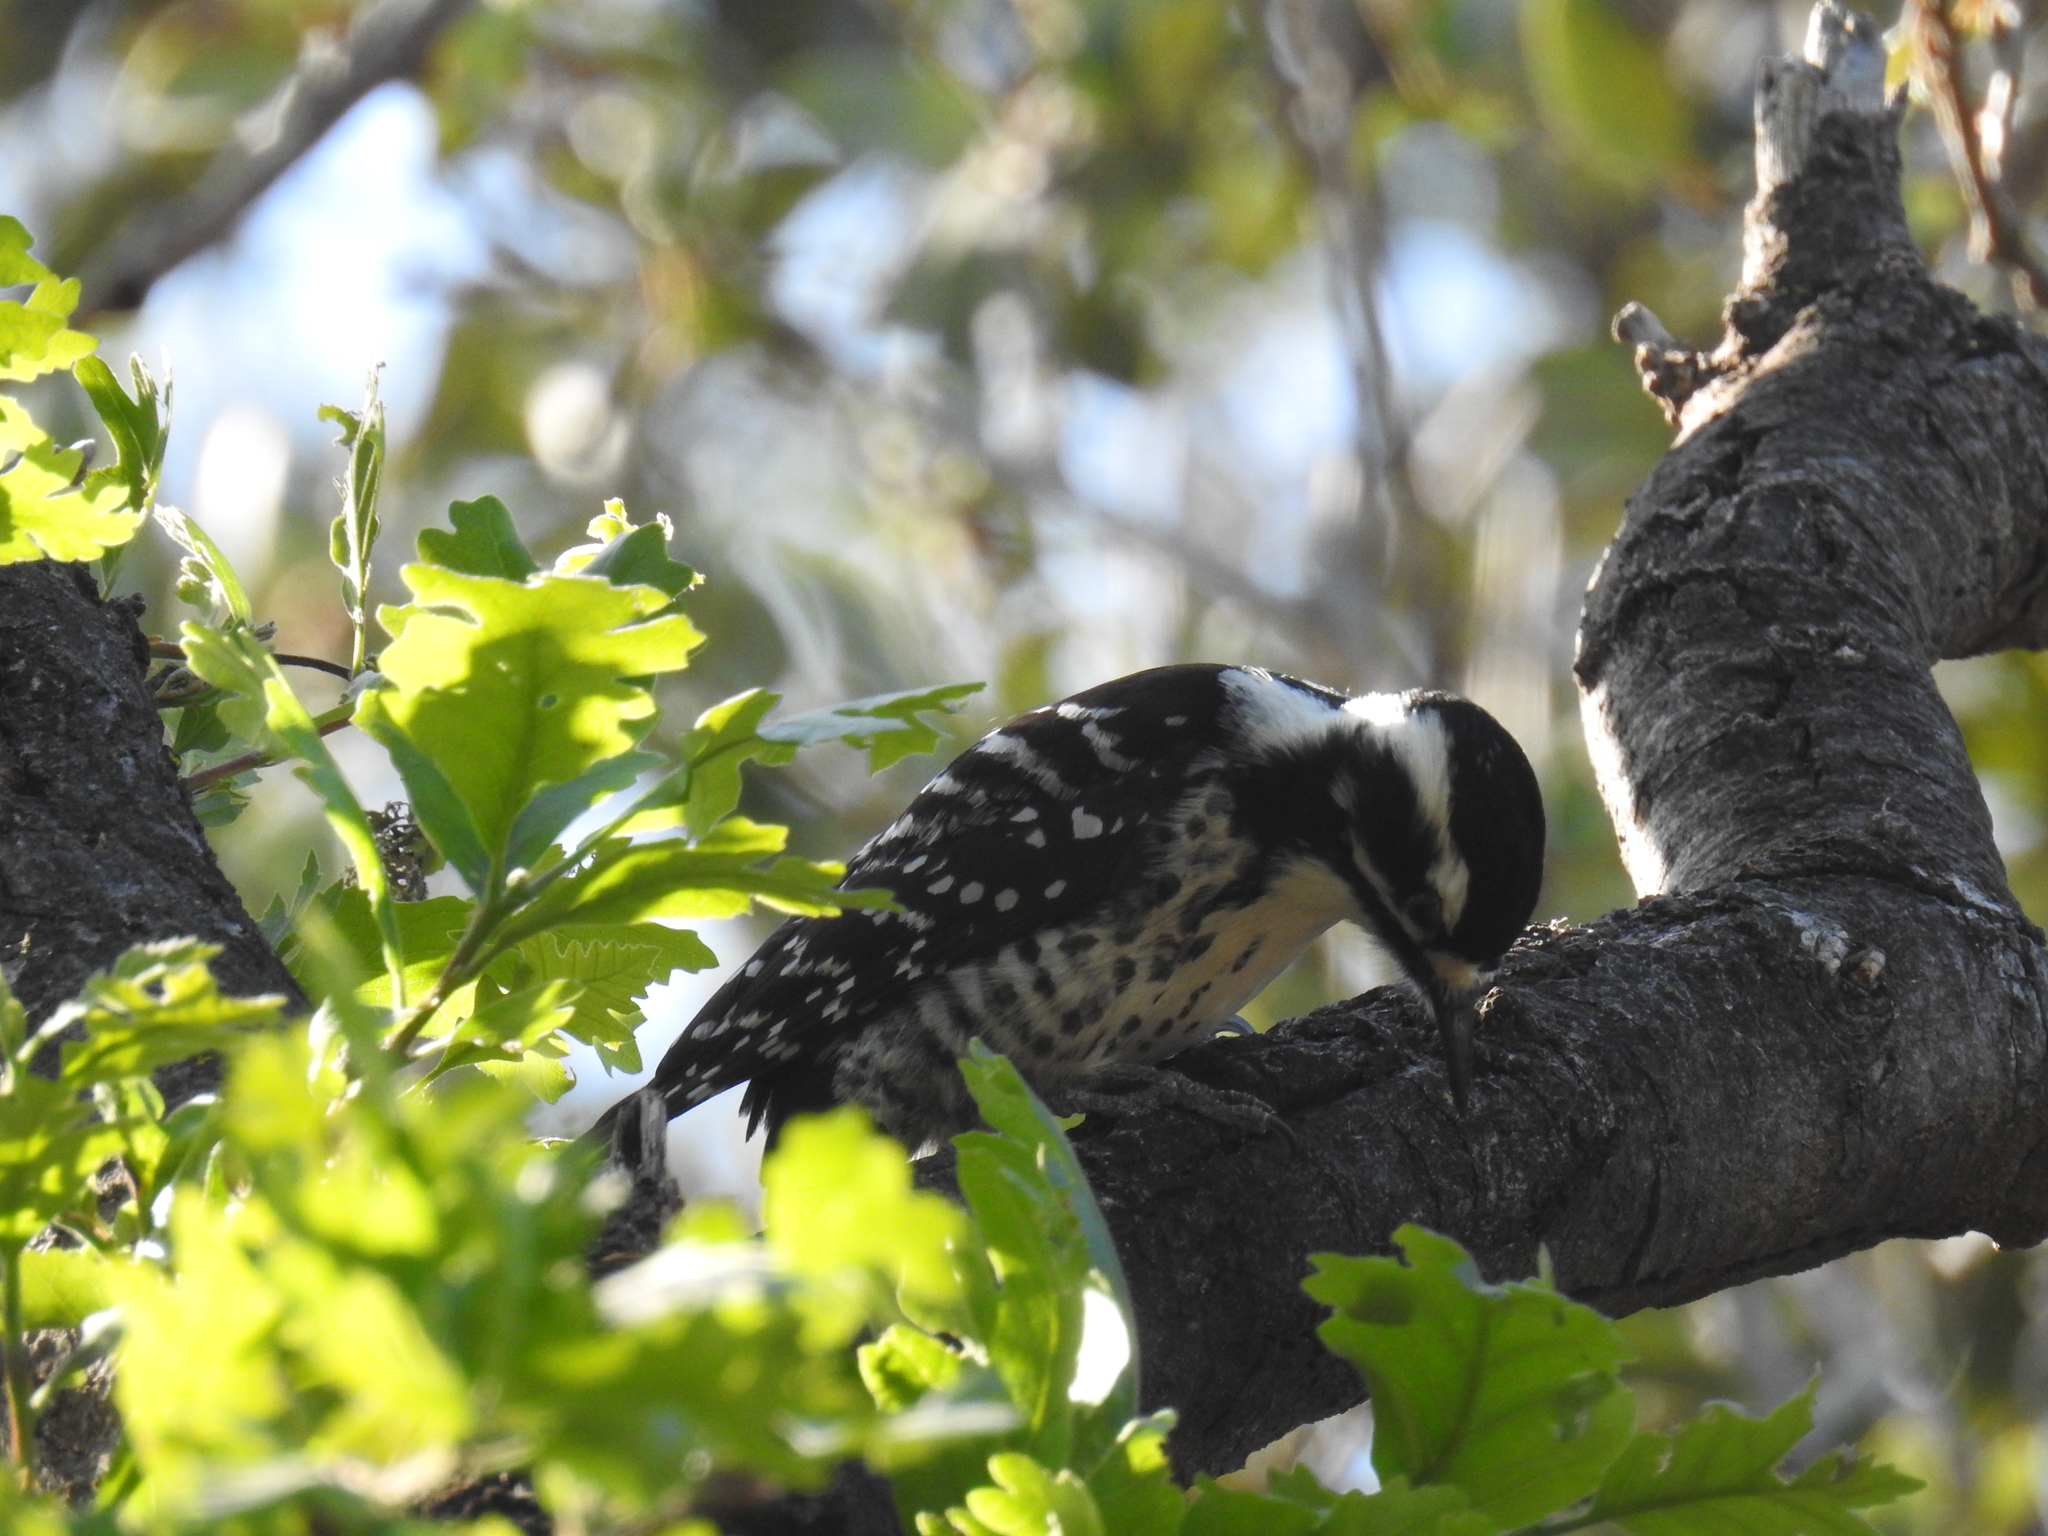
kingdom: Animalia
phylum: Chordata
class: Aves
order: Piciformes
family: Picidae
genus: Dryobates
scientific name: Dryobates nuttallii
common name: Nuttall's woodpecker
